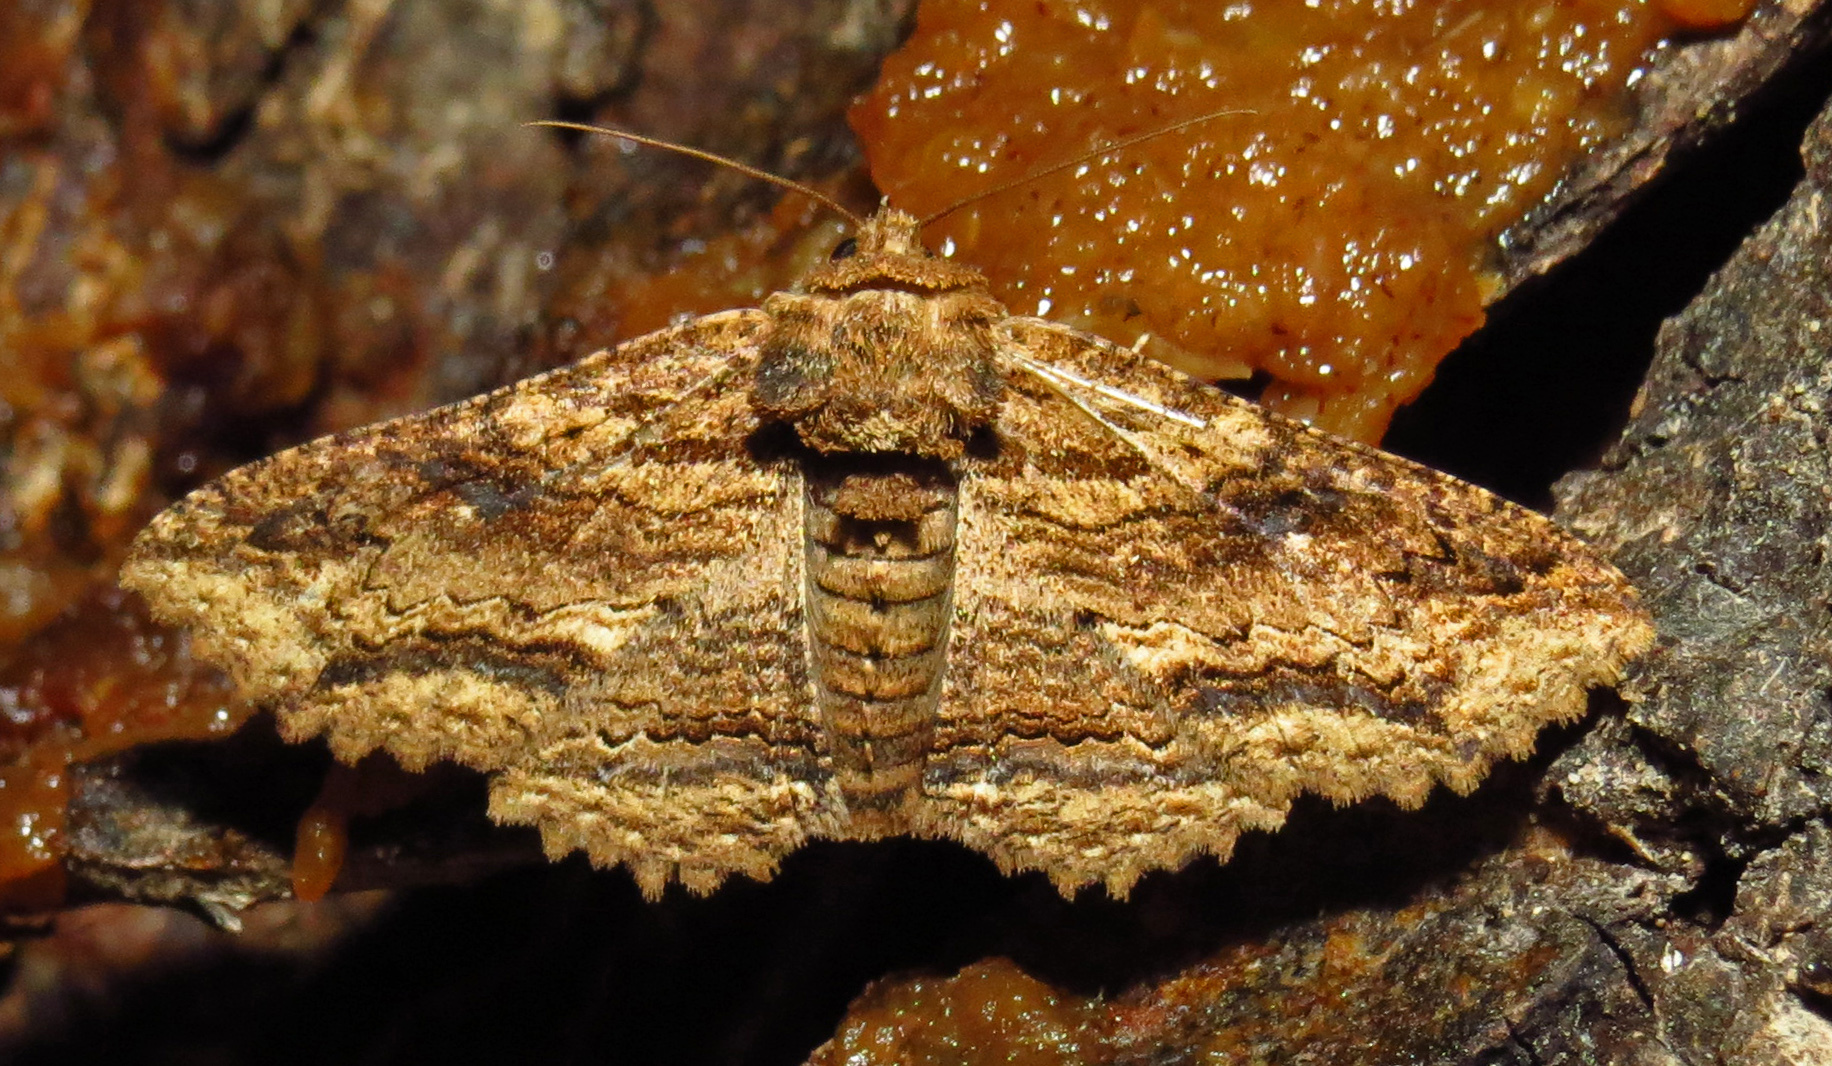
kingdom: Animalia
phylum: Arthropoda
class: Insecta
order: Lepidoptera
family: Erebidae
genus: Zale
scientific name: Zale lunata
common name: Lunate zale moth
